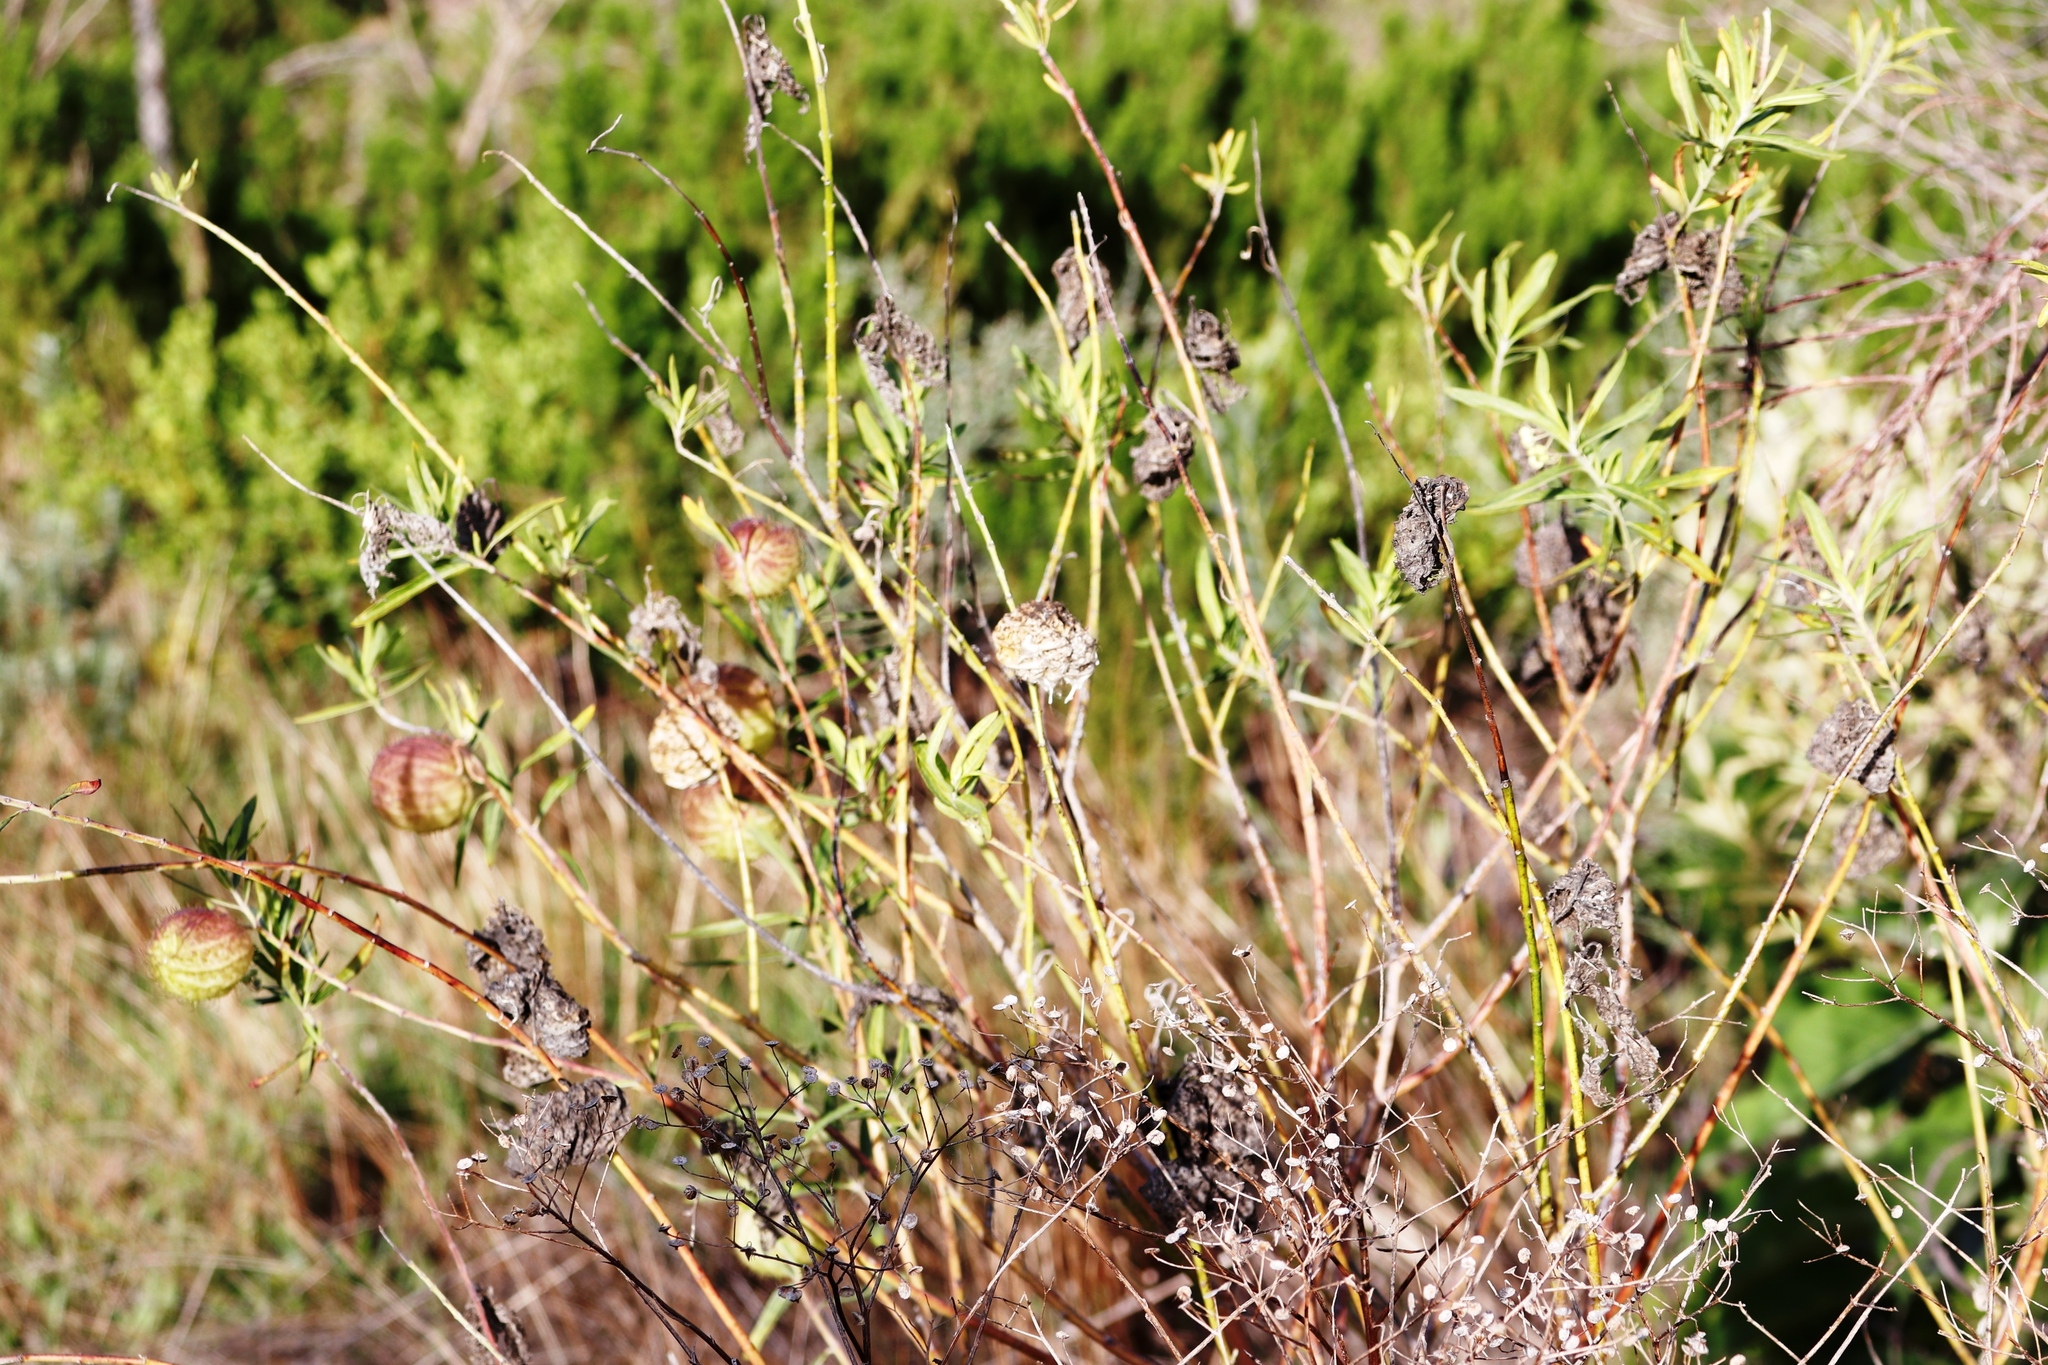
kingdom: Plantae
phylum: Tracheophyta
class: Magnoliopsida
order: Gentianales
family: Apocynaceae
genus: Gomphocarpus
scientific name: Gomphocarpus physocarpus
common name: Balloon cotton bush
